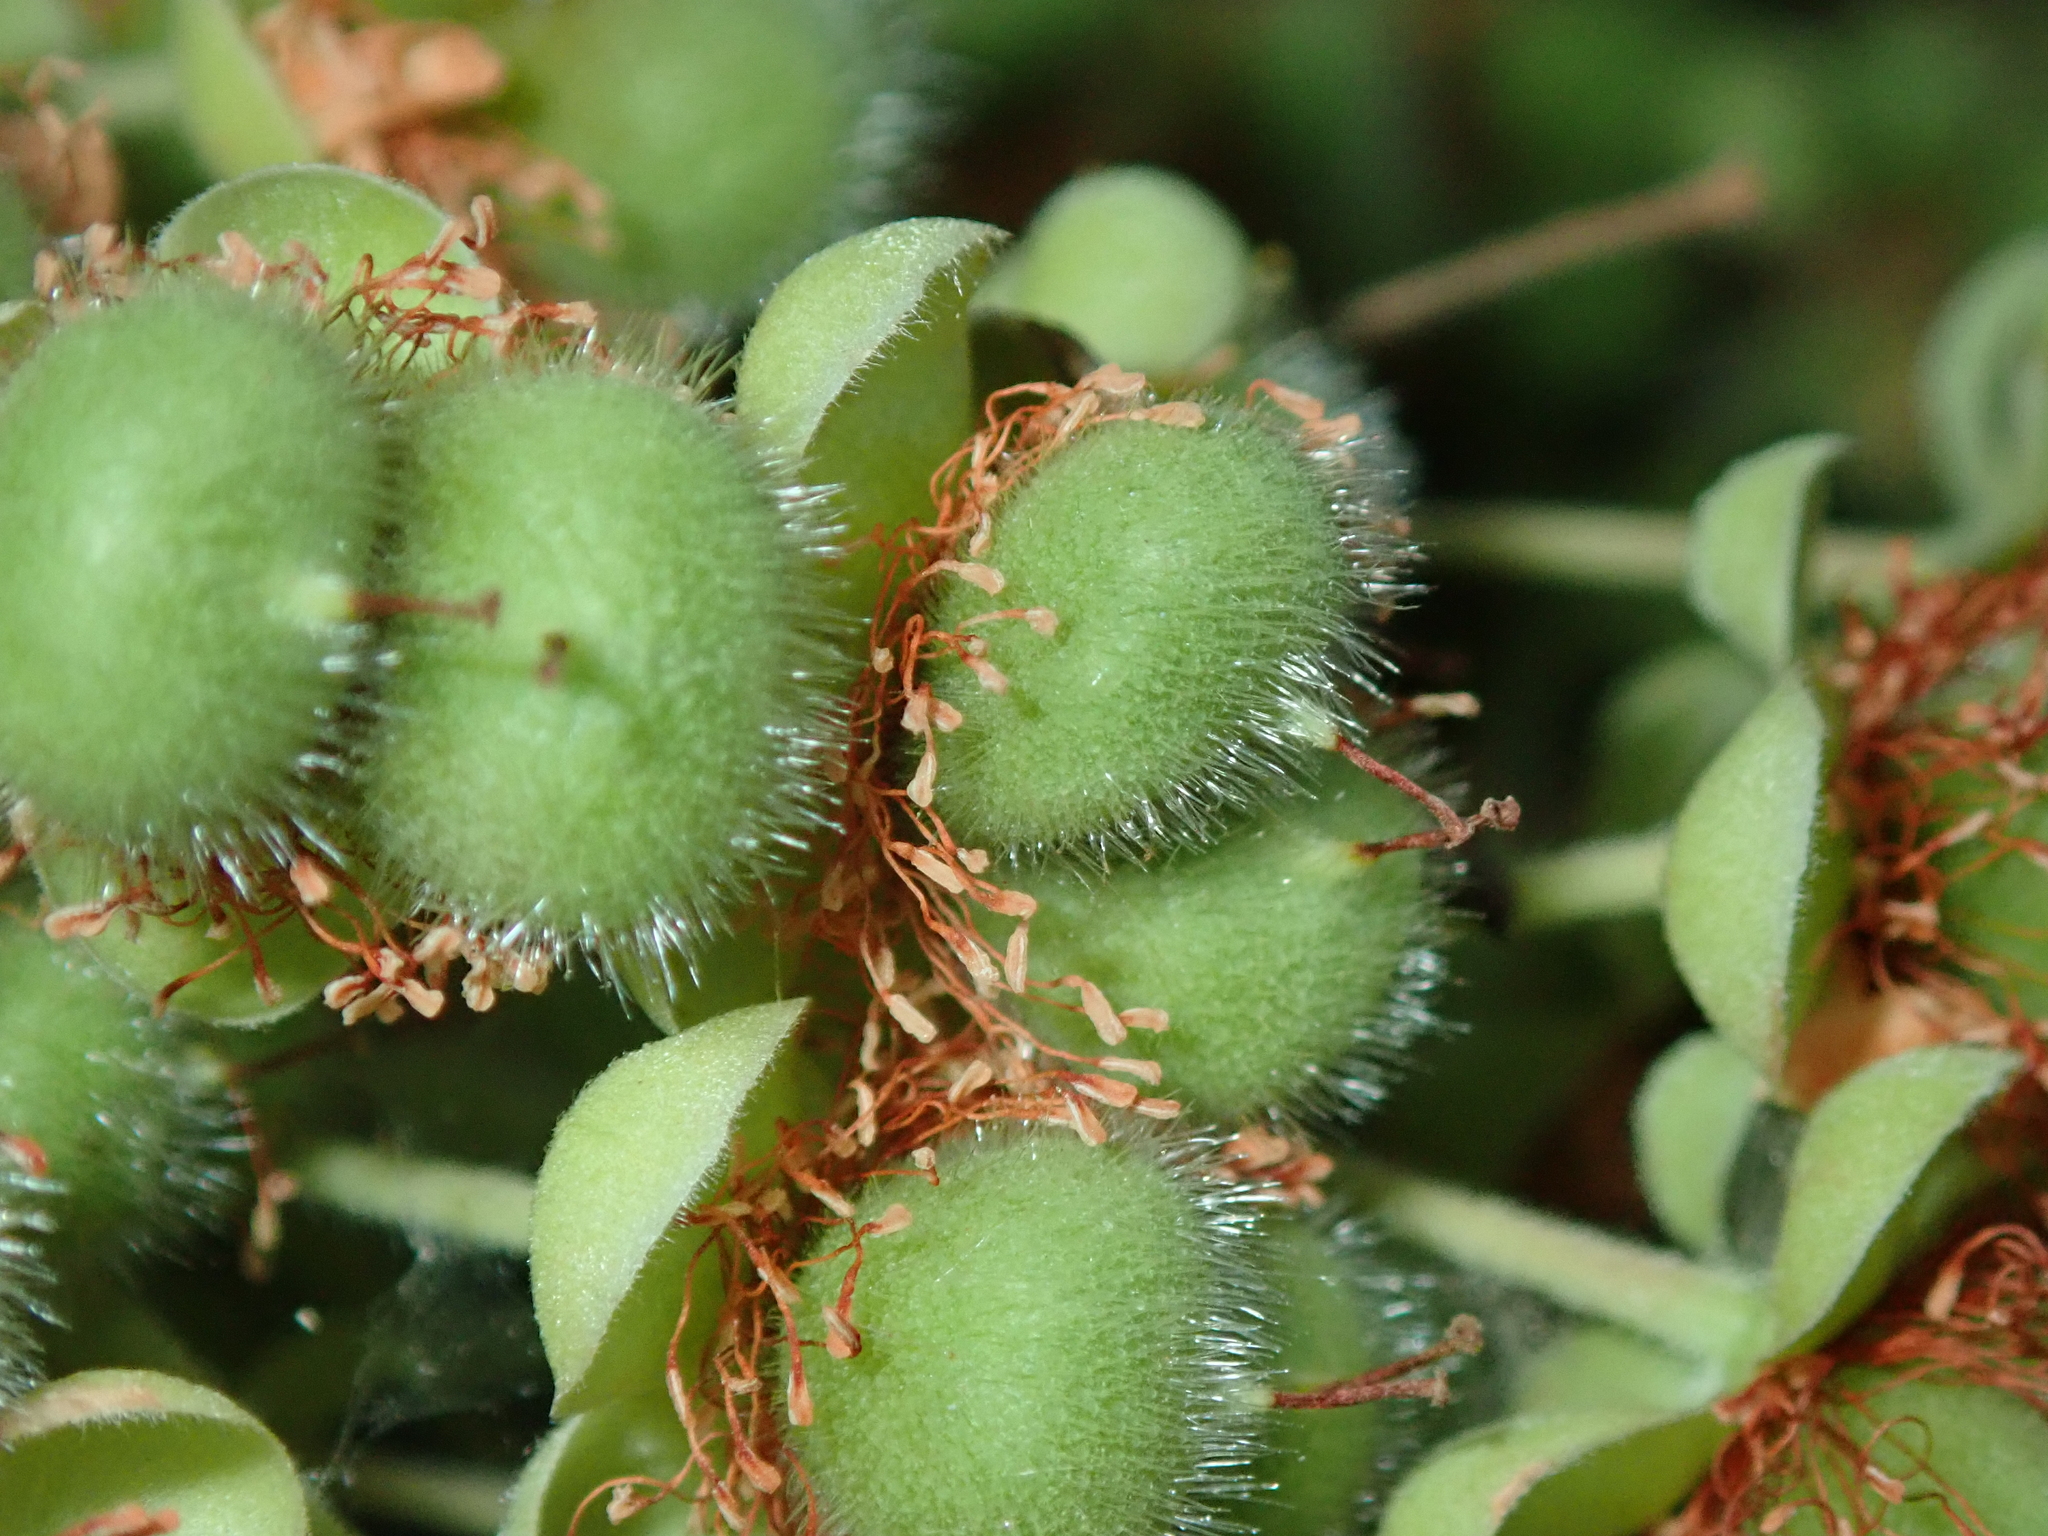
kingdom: Plantae
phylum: Tracheophyta
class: Magnoliopsida
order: Dilleniales
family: Dilleniaceae
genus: Curatella
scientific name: Curatella americana
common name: Sandpaper tree
